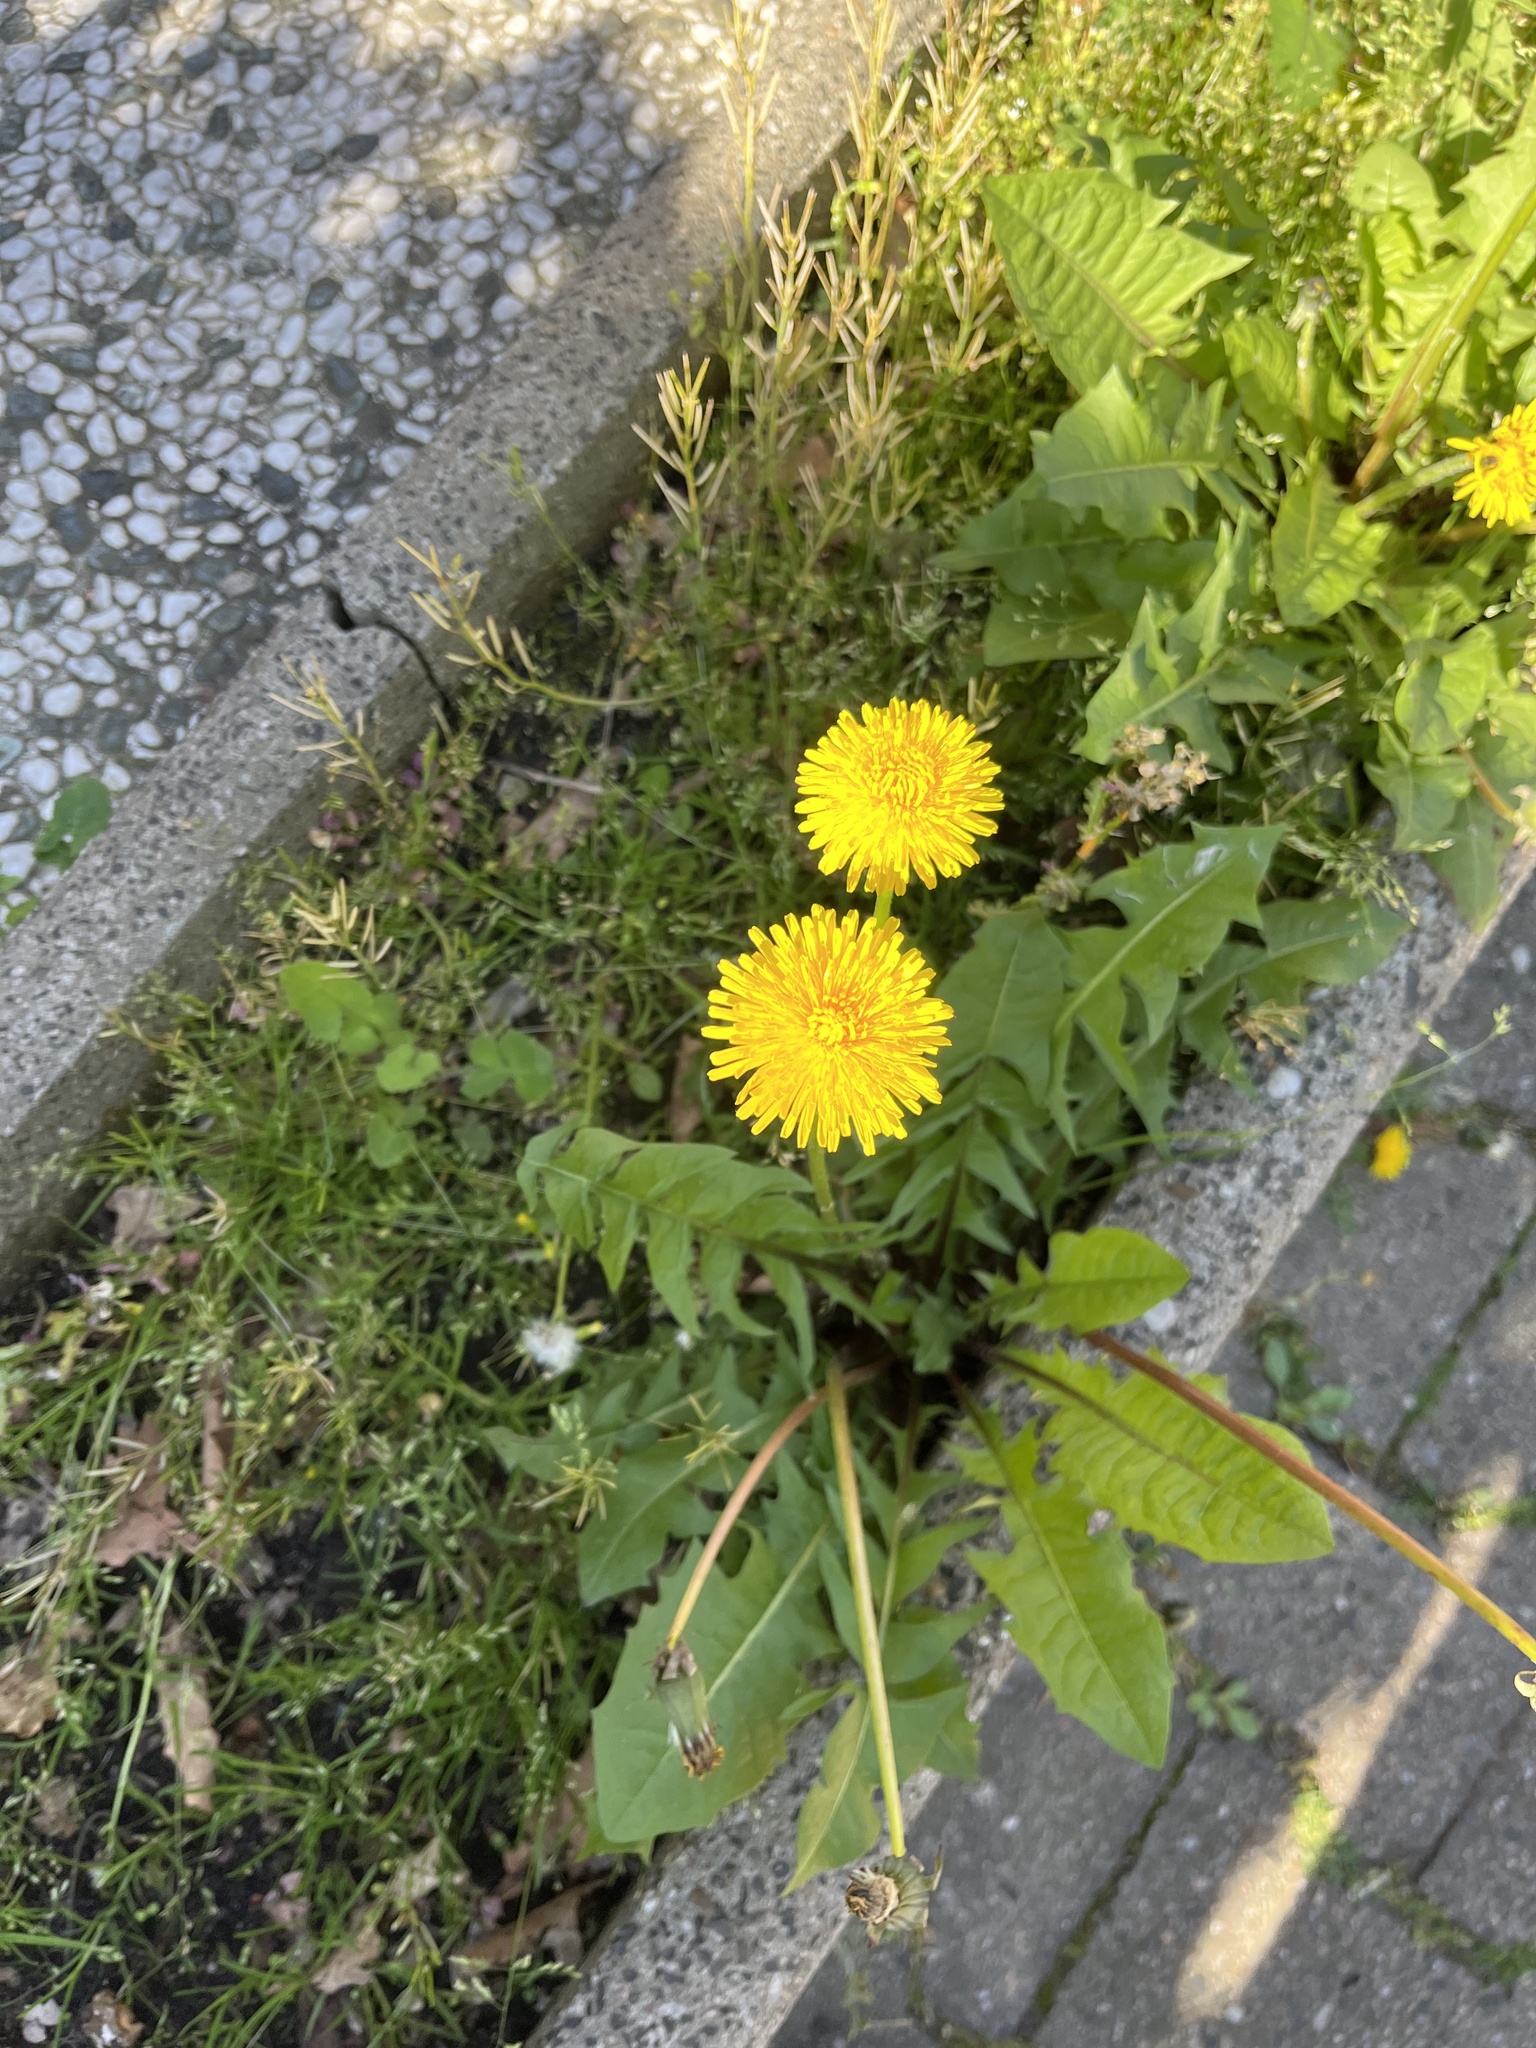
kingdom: Plantae
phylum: Tracheophyta
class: Magnoliopsida
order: Asterales
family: Asteraceae
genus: Taraxacum
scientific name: Taraxacum officinale
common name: Common dandelion
